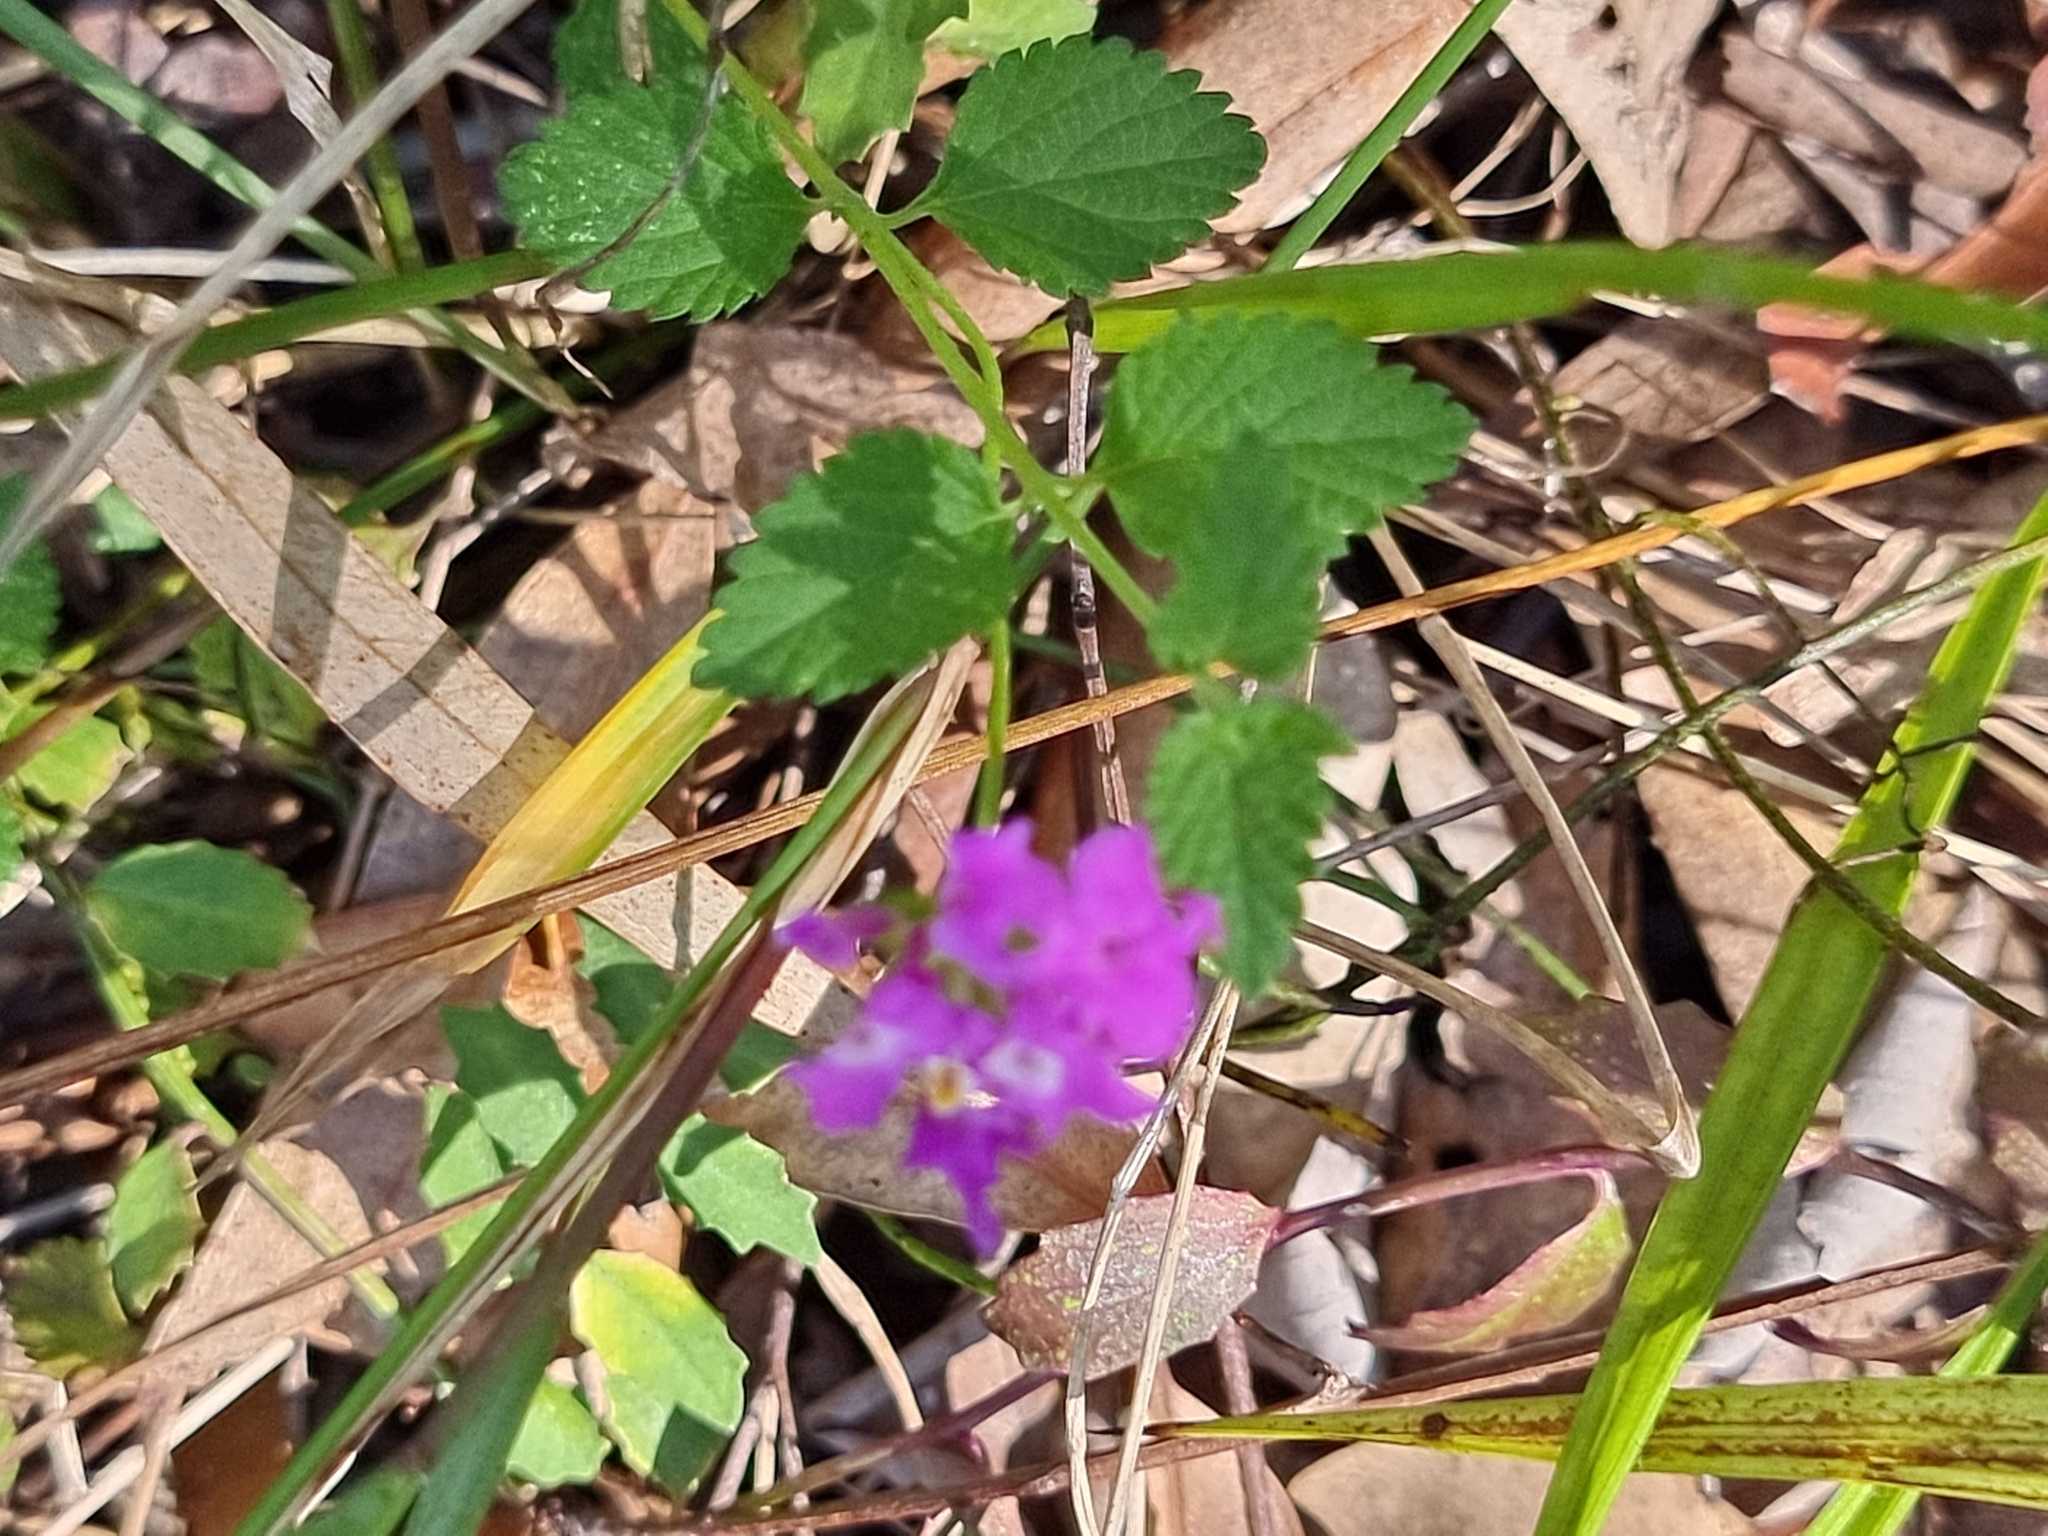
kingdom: Plantae
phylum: Tracheophyta
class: Magnoliopsida
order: Lamiales
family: Verbenaceae
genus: Lantana
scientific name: Lantana montevidensis
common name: Trailing shrubverbena
